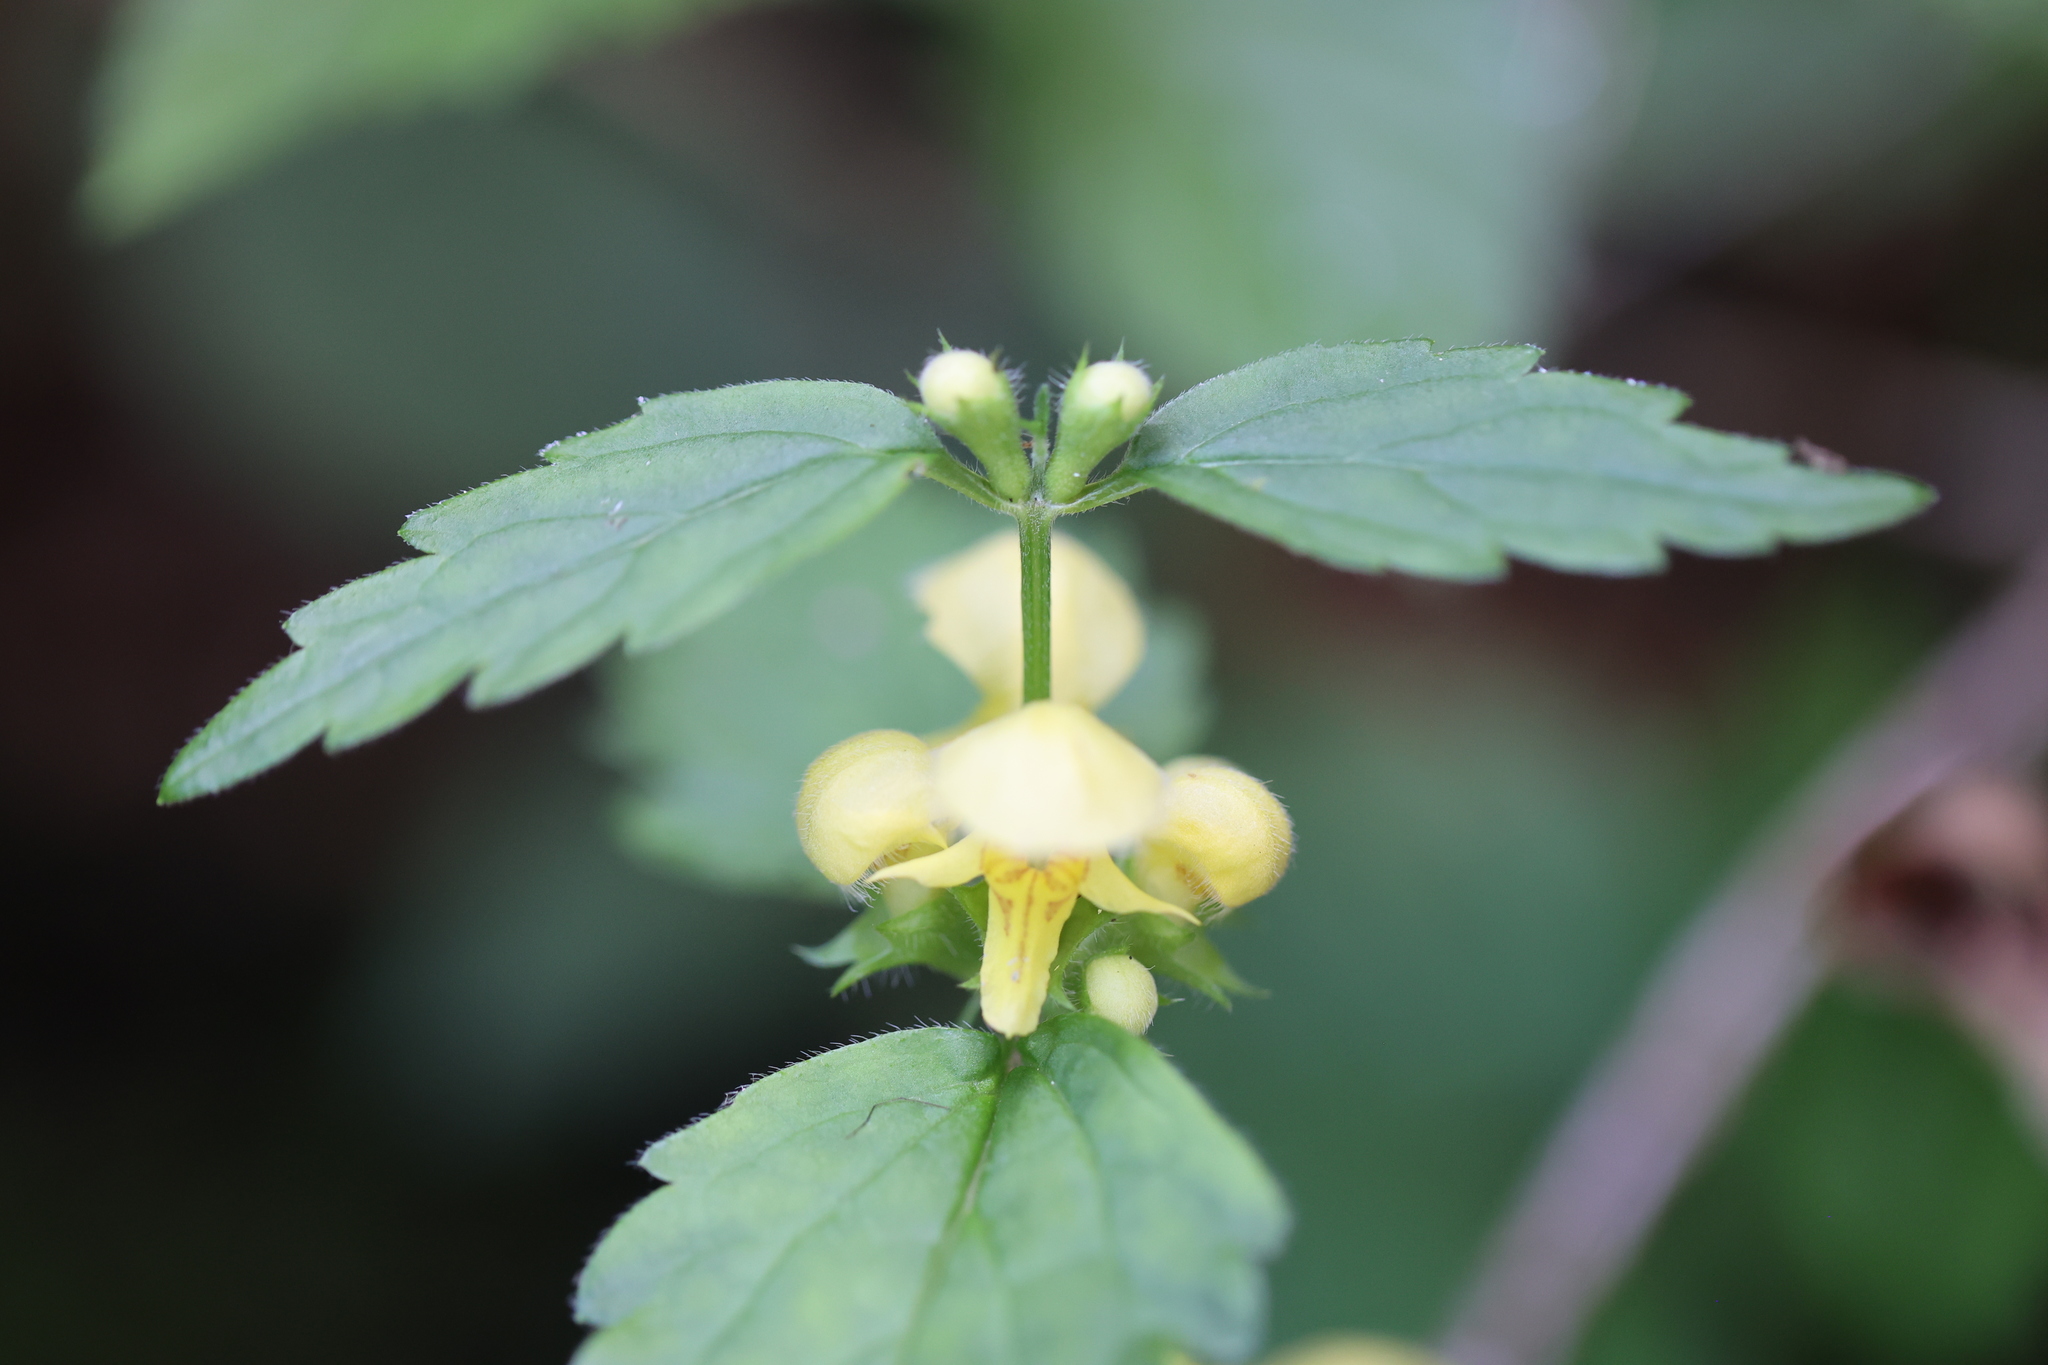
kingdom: Plantae
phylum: Tracheophyta
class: Magnoliopsida
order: Lamiales
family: Lamiaceae
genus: Lamium
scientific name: Lamium galeobdolon
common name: Yellow archangel
